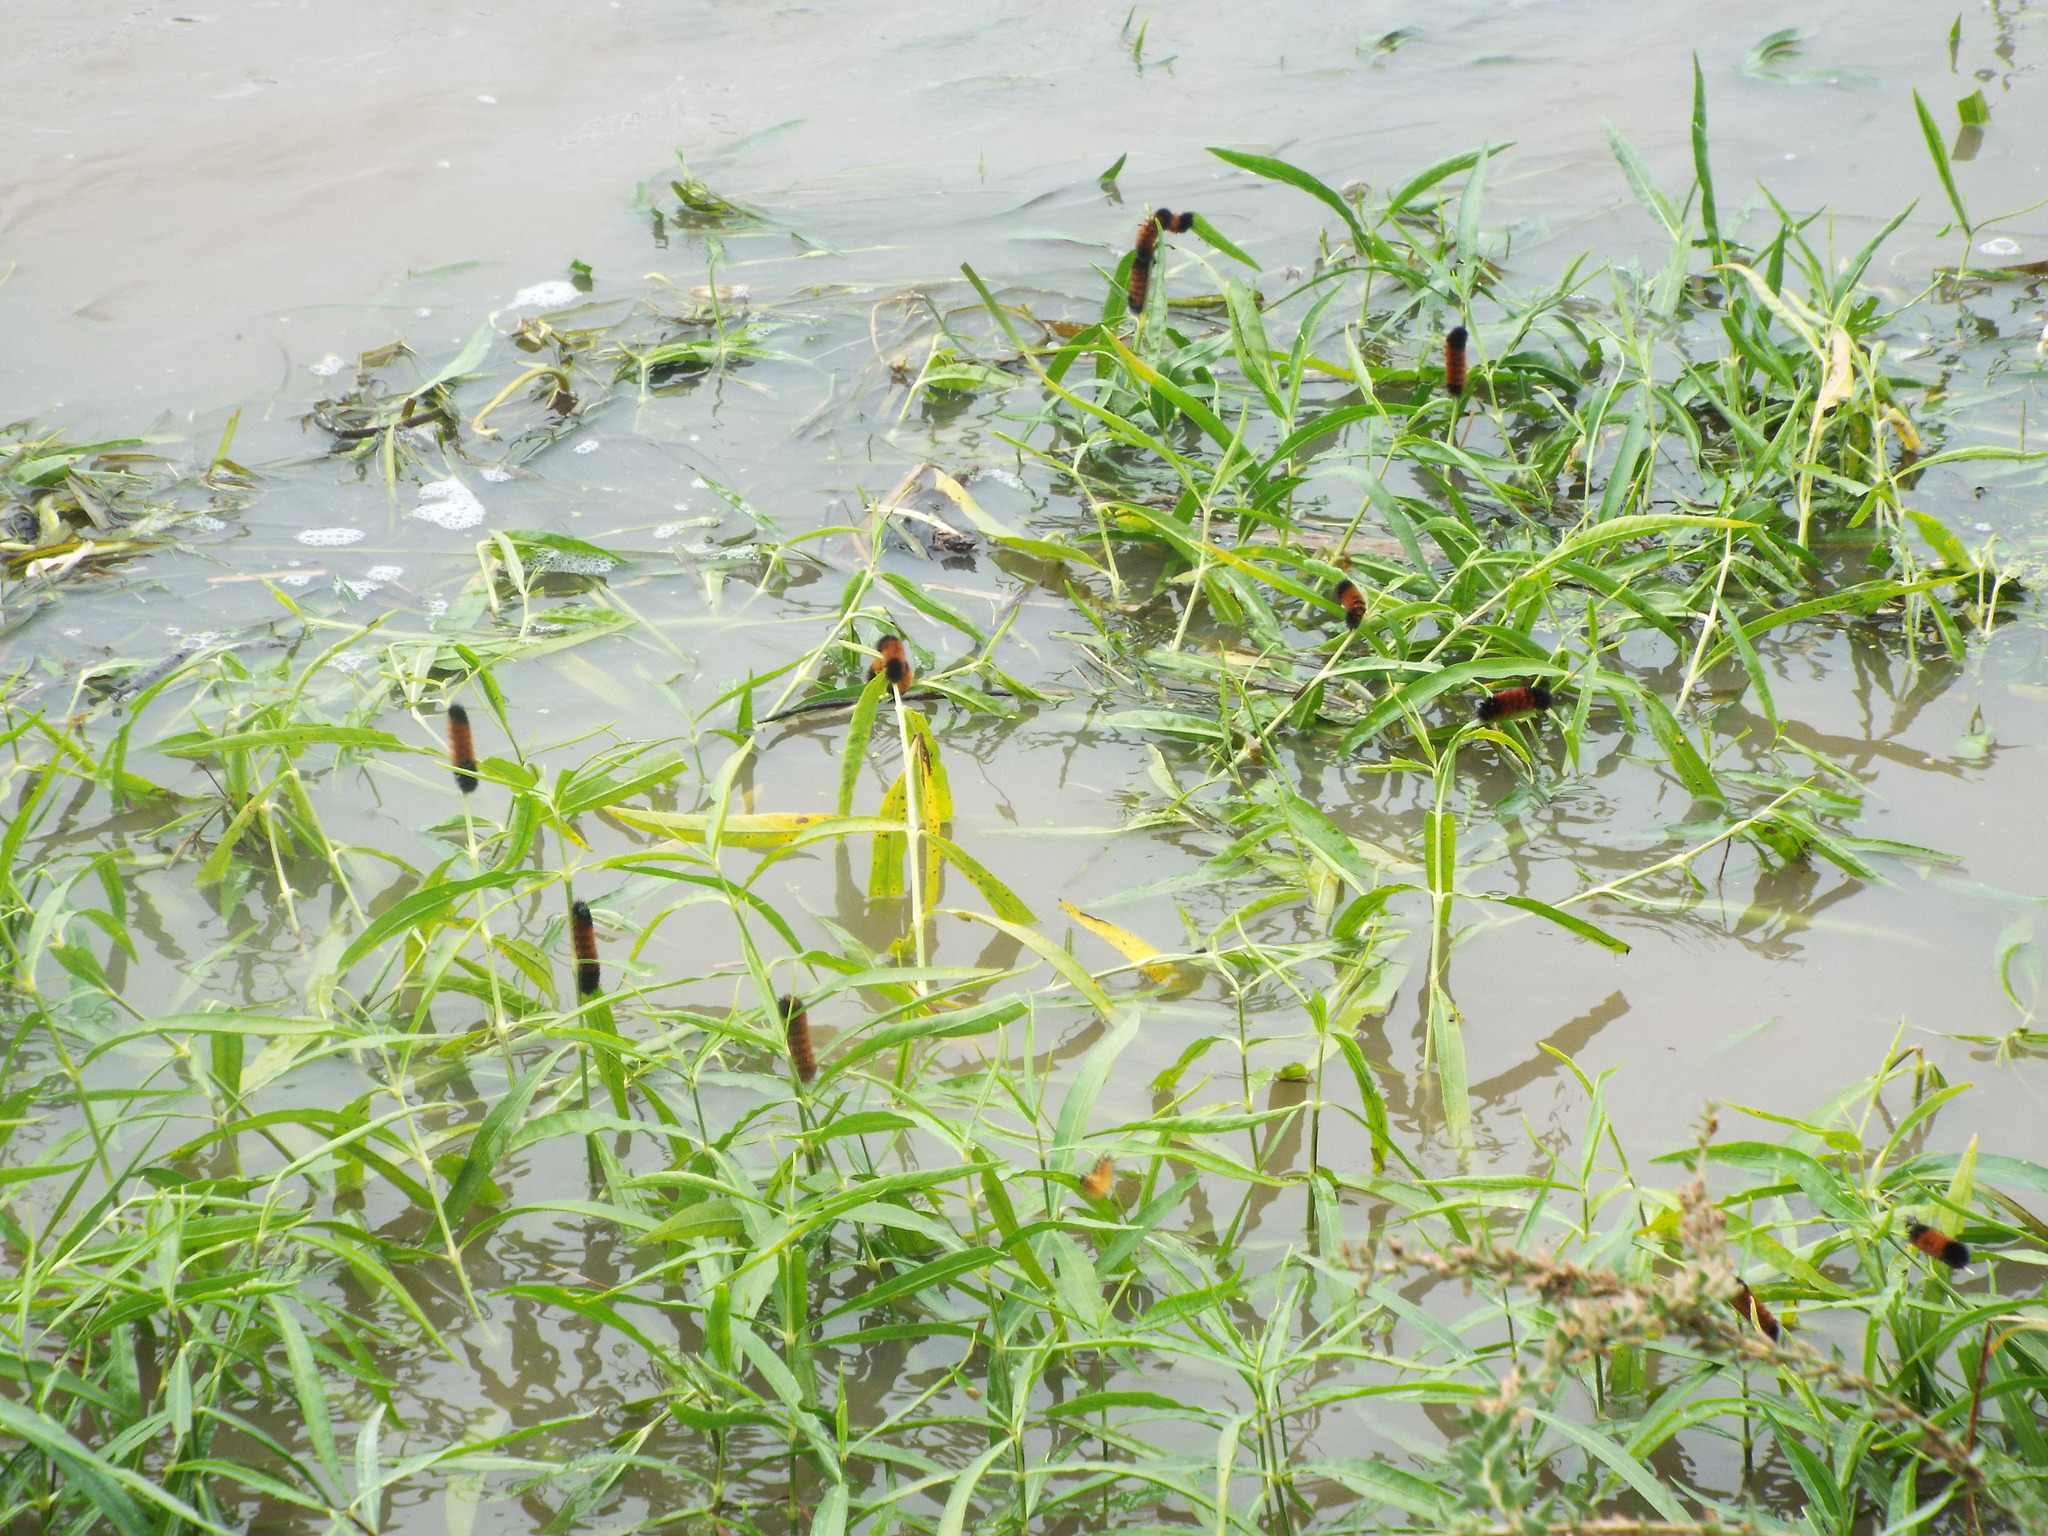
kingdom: Animalia
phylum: Arthropoda
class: Insecta
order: Lepidoptera
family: Erebidae
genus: Pyrrharctia
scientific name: Pyrrharctia isabella
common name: Isabella tiger moth
